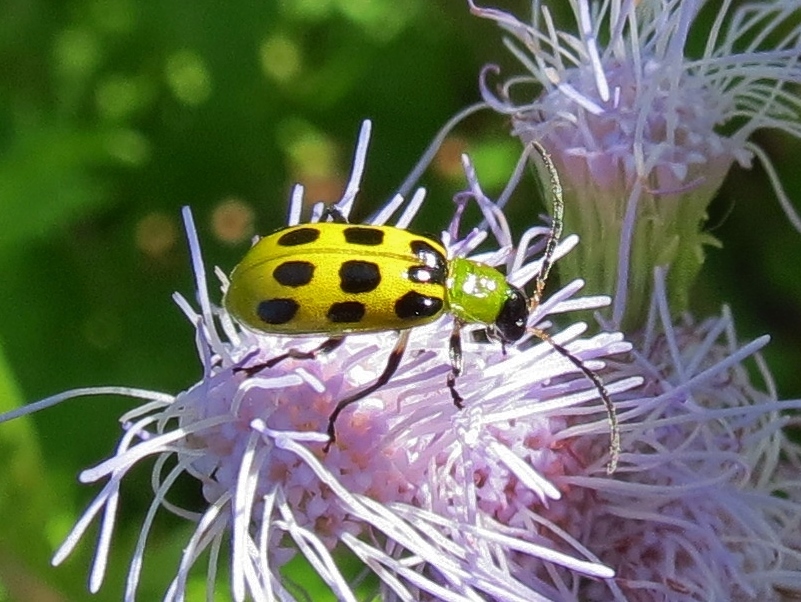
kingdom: Animalia
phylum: Arthropoda
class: Insecta
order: Coleoptera
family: Chrysomelidae
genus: Diabrotica
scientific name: Diabrotica undecimpunctata
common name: Spotted cucumber beetle
